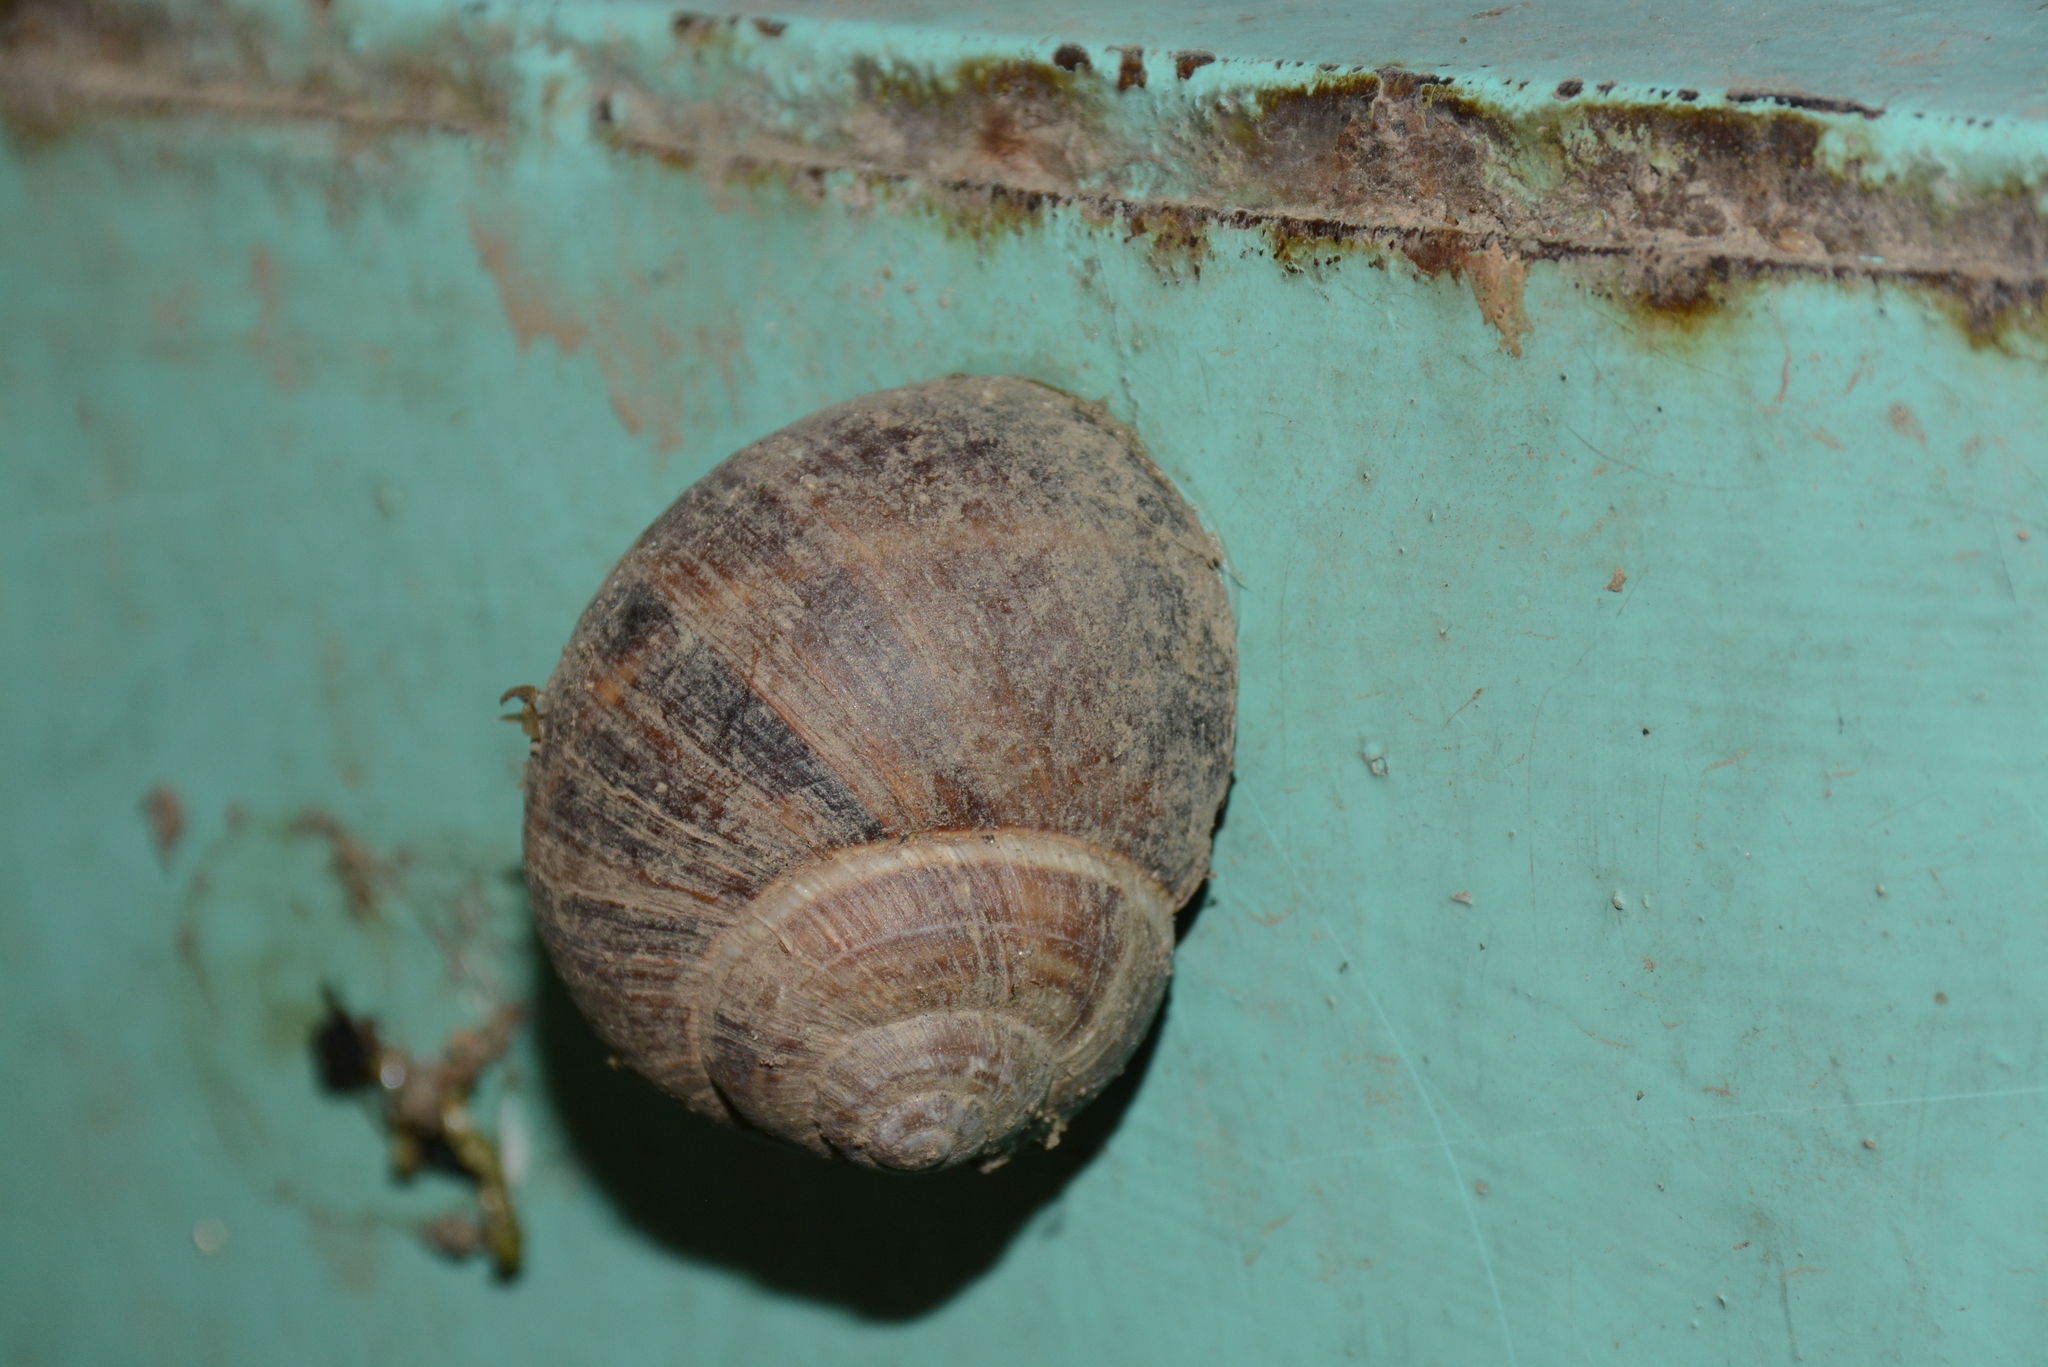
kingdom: Animalia
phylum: Mollusca
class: Gastropoda
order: Stylommatophora
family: Helicidae
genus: Helix
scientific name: Helix lucorum
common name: Turkish snail
